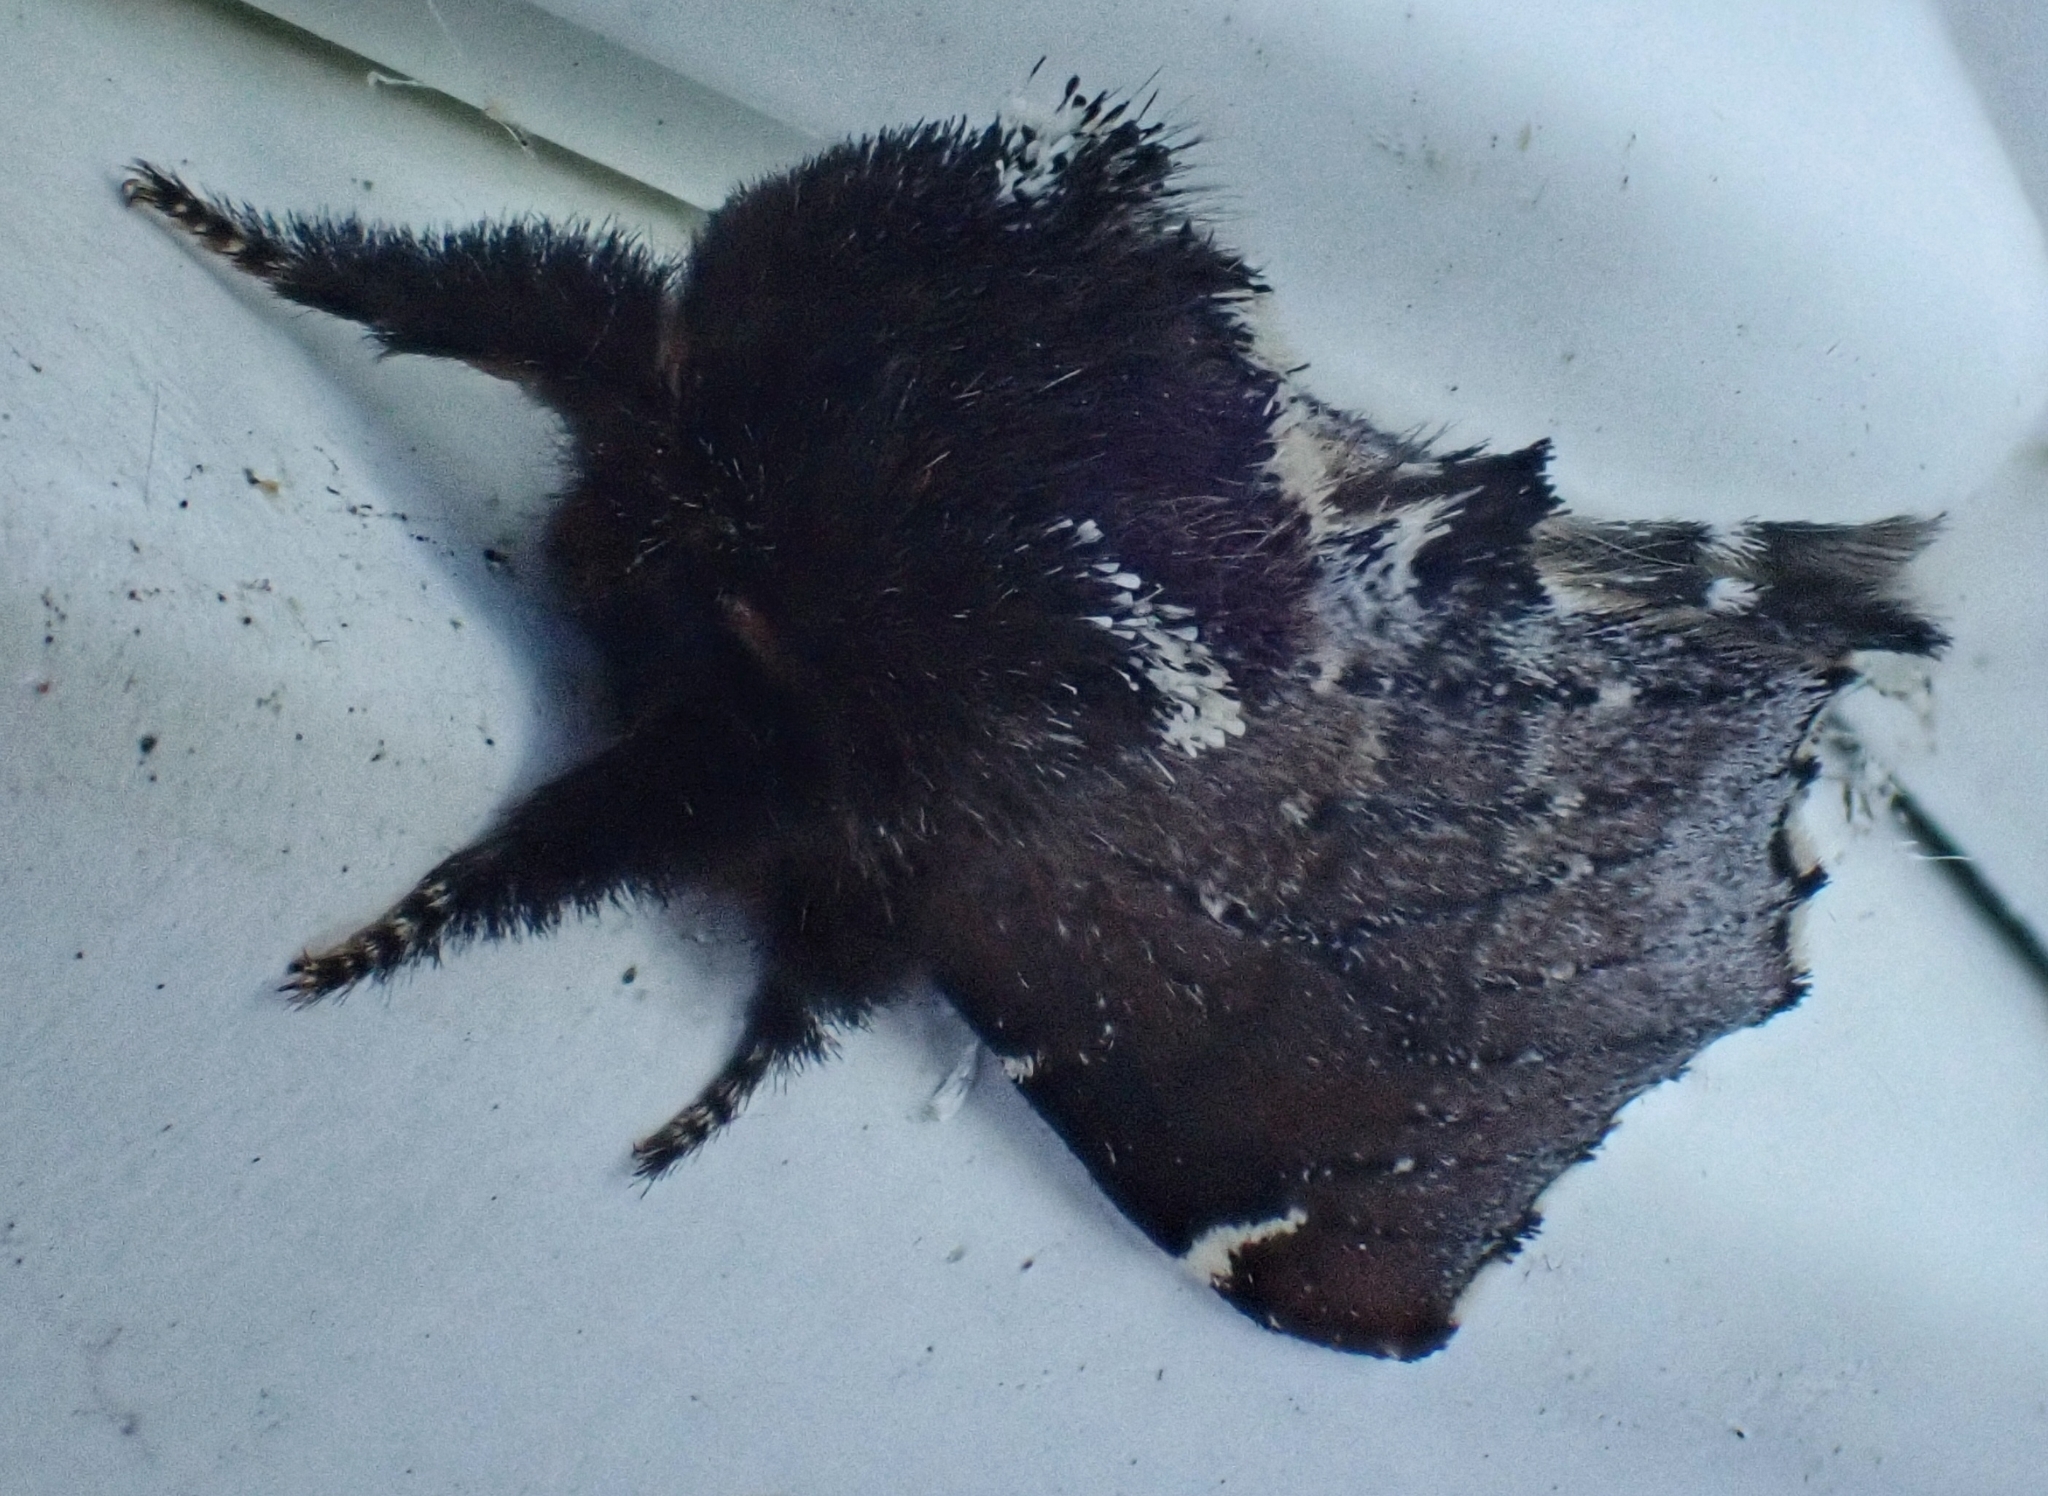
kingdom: Animalia
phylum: Arthropoda
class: Insecta
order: Lepidoptera
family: Notodontidae
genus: Odontosia
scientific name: Odontosia carmelita
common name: Scarce prominent
